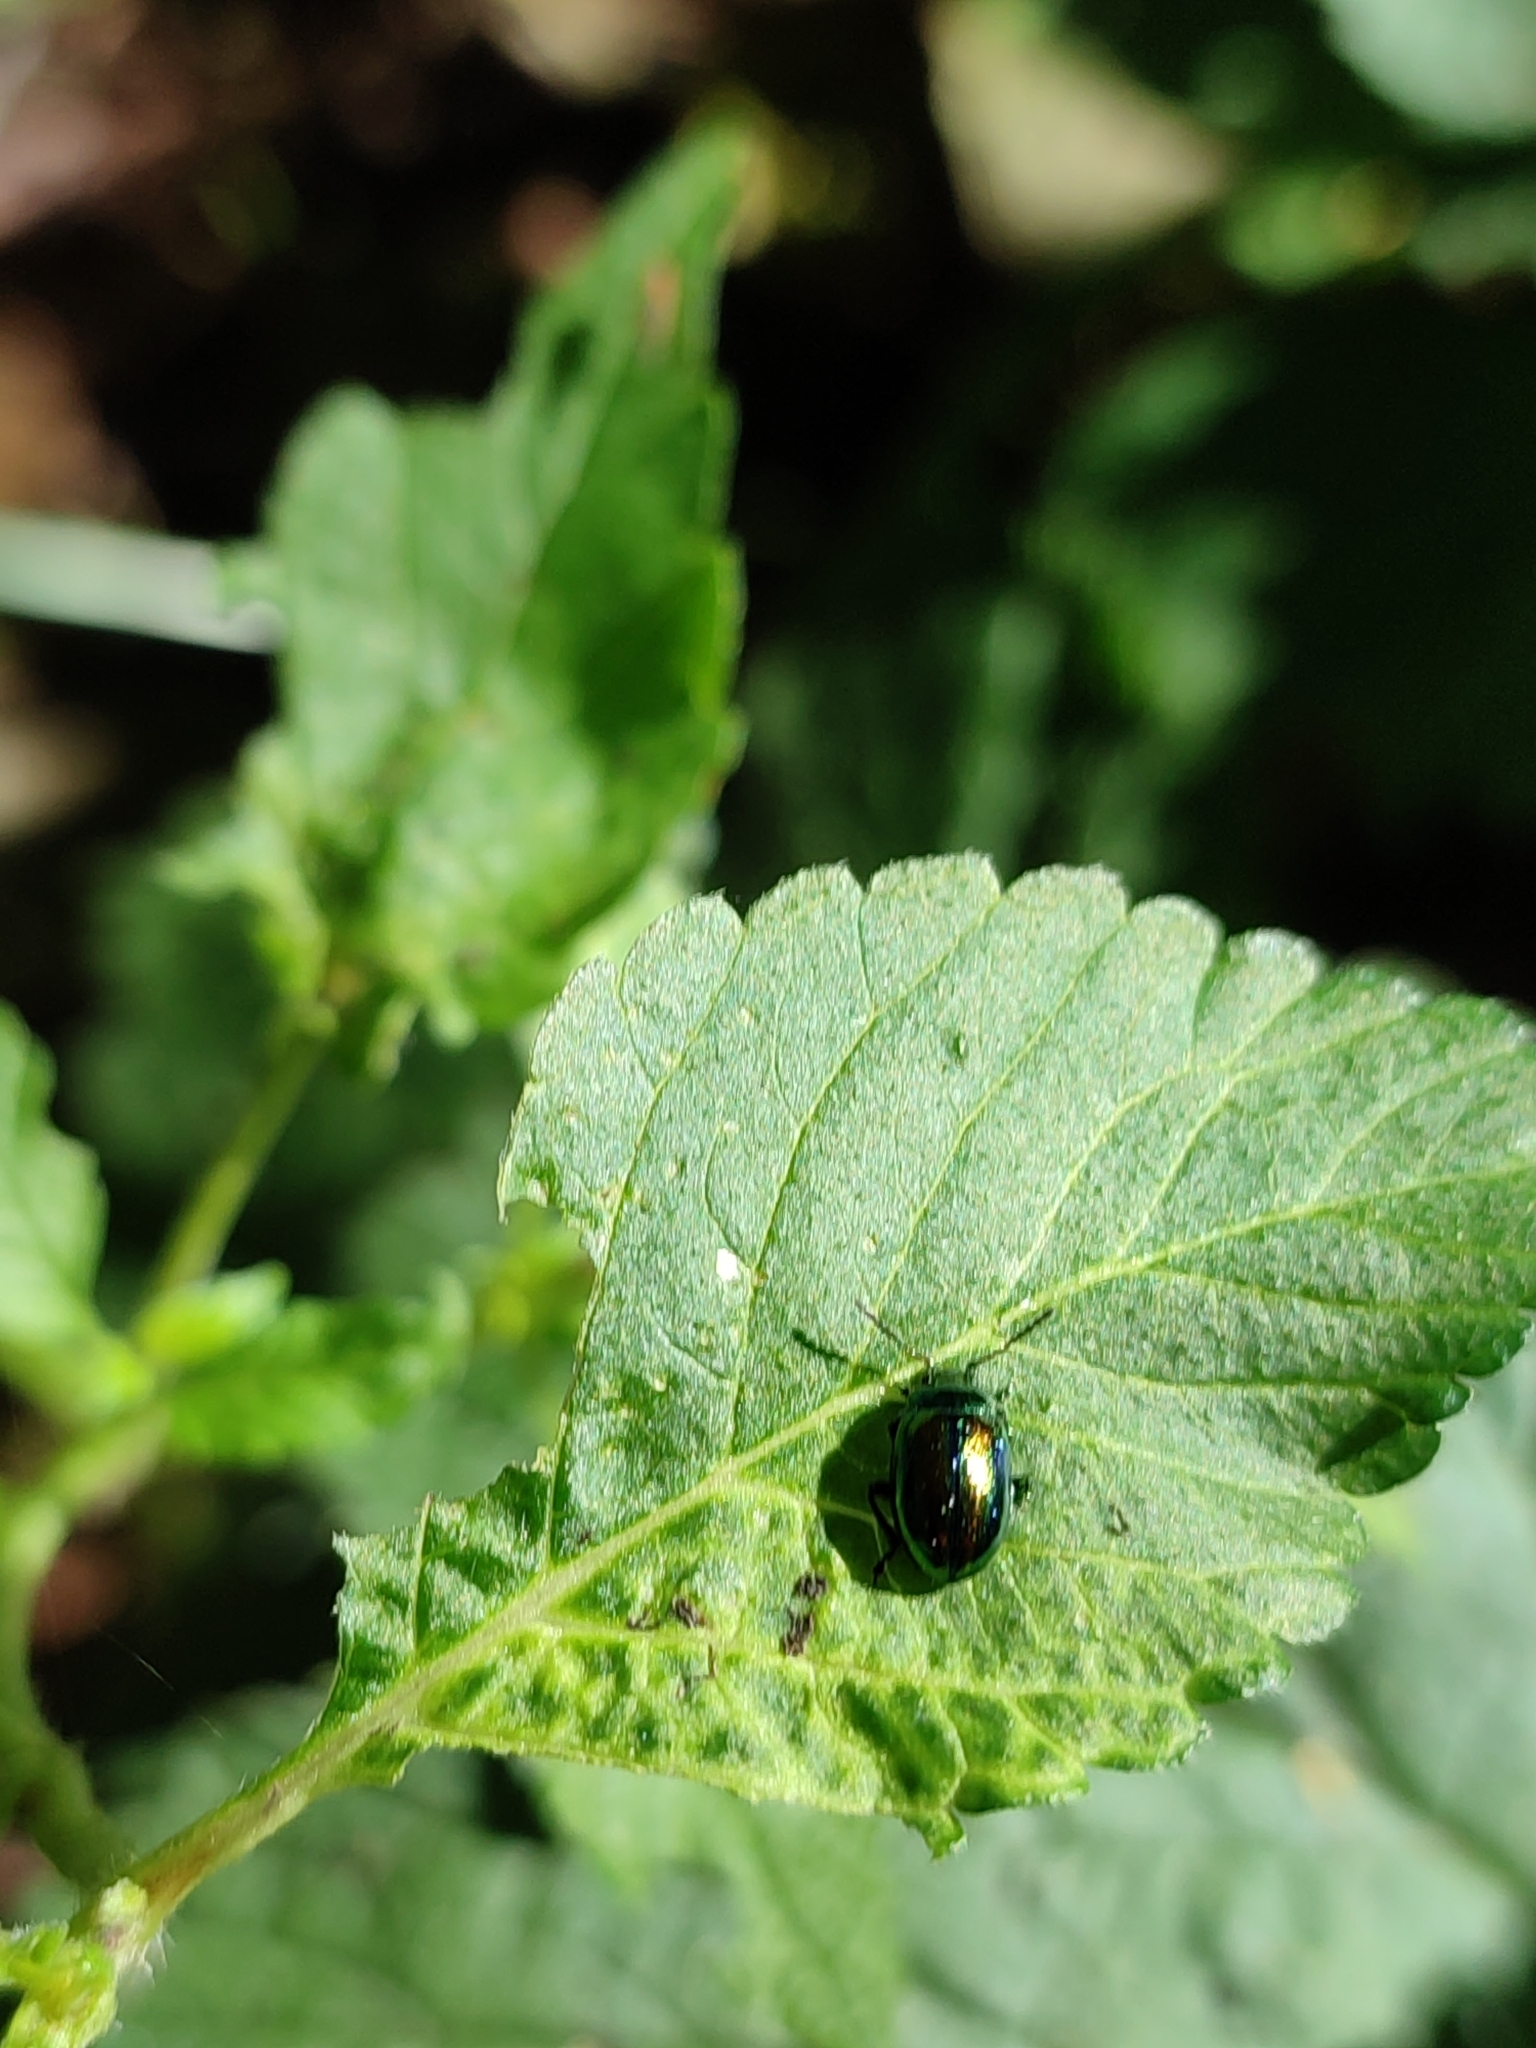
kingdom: Animalia
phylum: Arthropoda
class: Insecta
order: Coleoptera
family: Chrysomelidae
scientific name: Chrysomelidae
